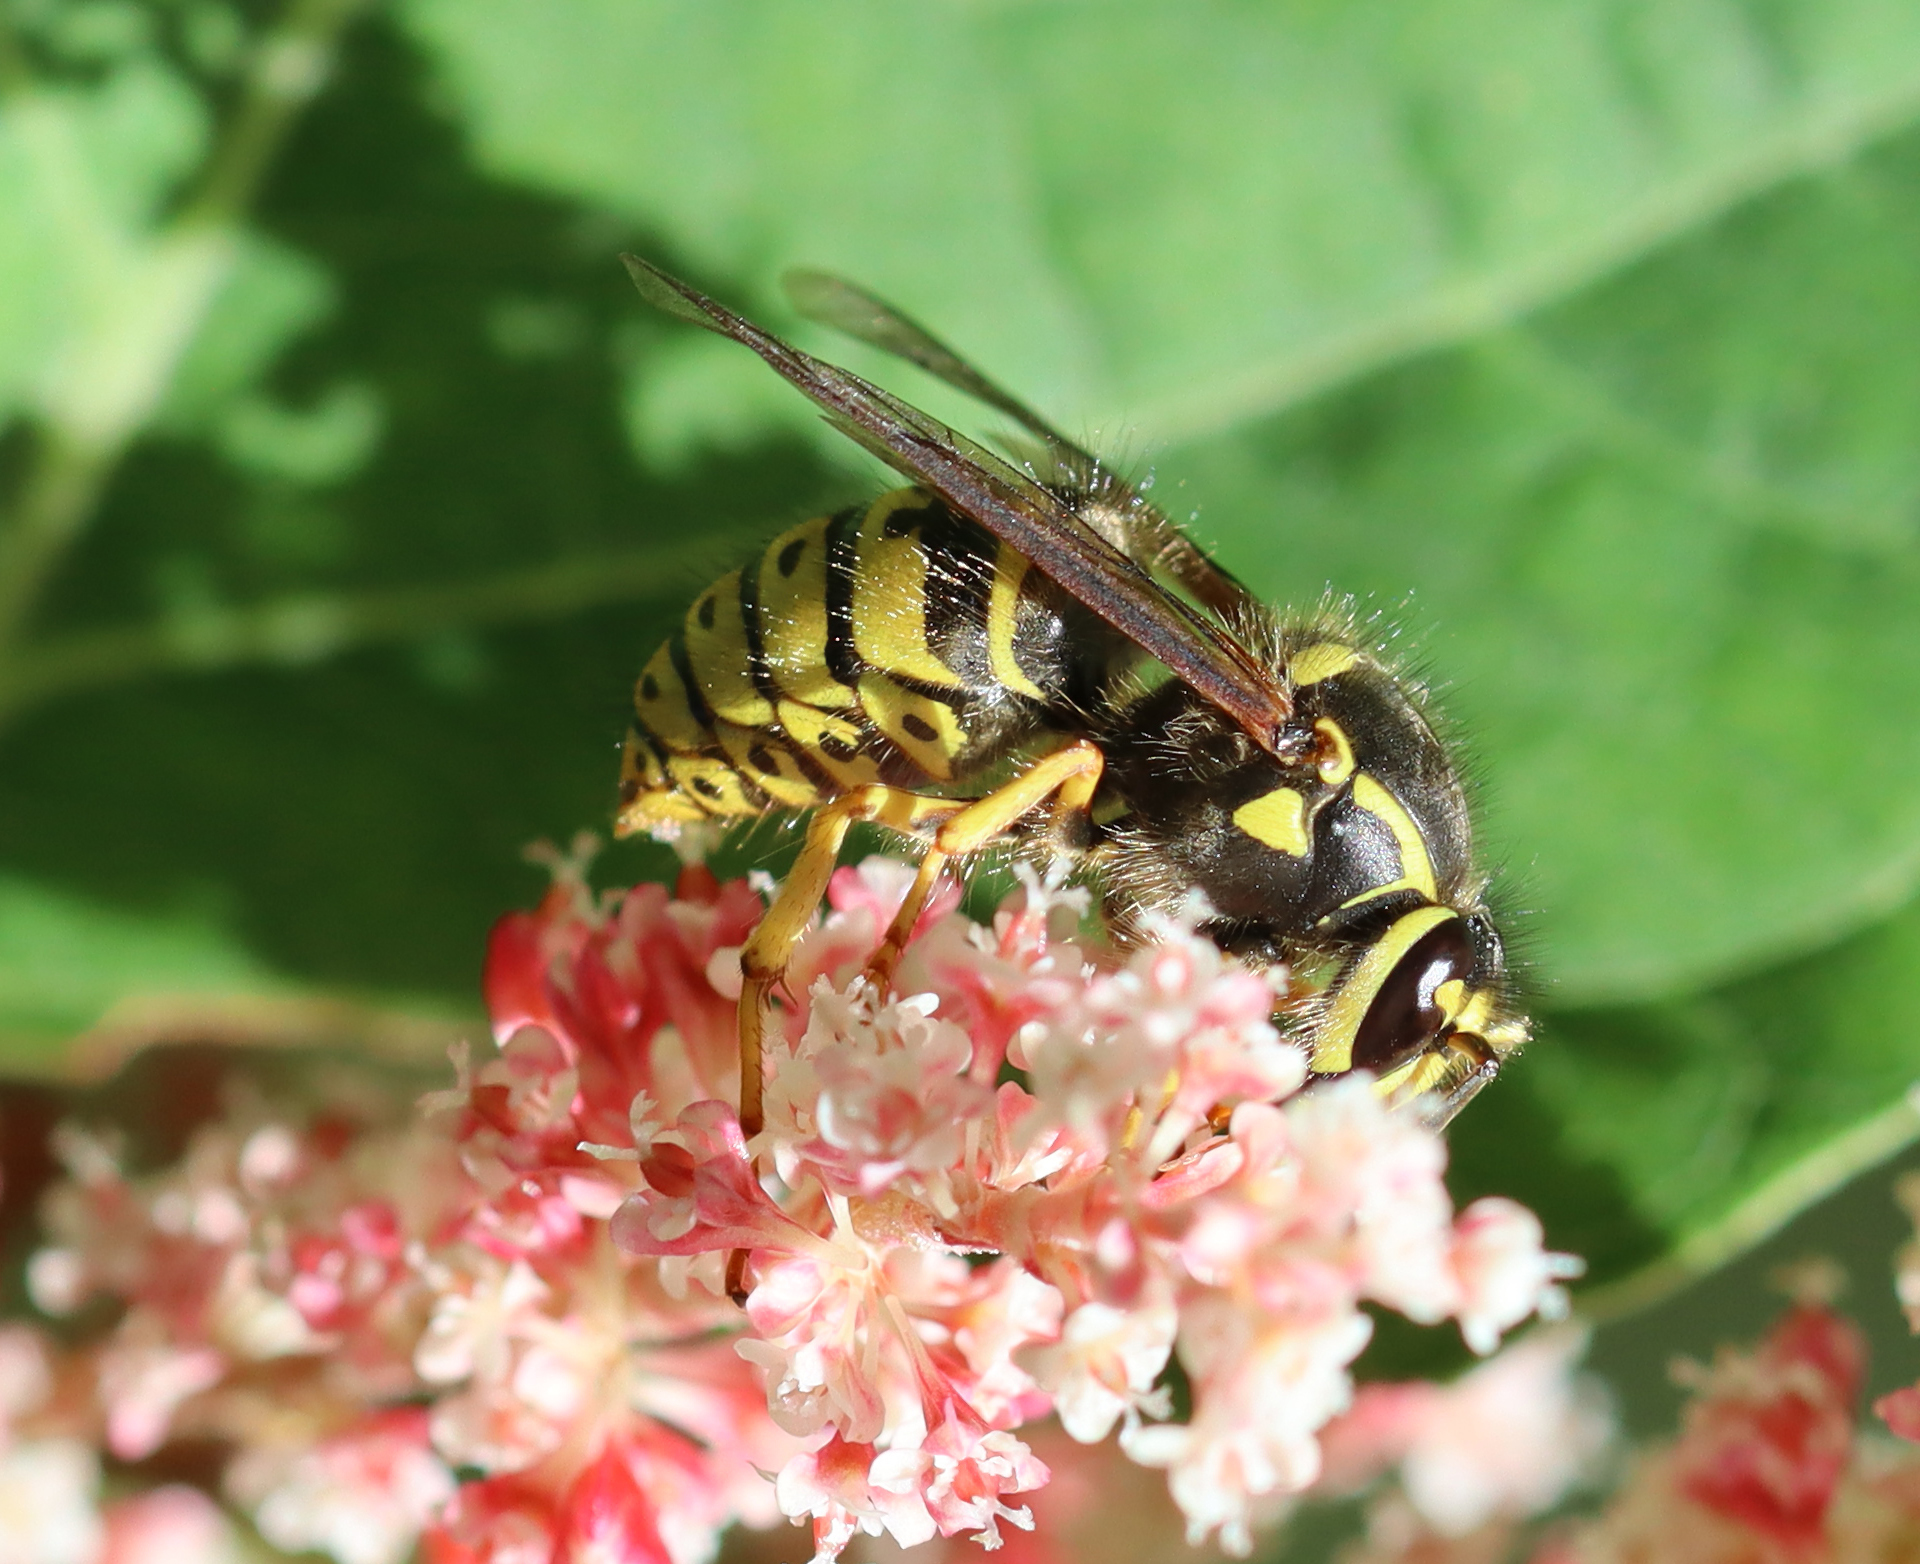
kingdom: Animalia
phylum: Arthropoda
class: Insecta
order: Hymenoptera
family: Vespidae
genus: Dolichovespula
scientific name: Dolichovespula arenaria
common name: Aerial yellowjacket
